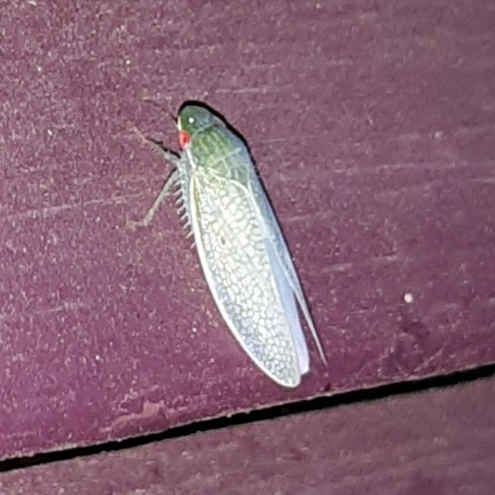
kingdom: Animalia
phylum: Arthropoda
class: Insecta
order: Hemiptera
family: Cicadellidae
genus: Gyponana
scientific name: Gyponana procera
